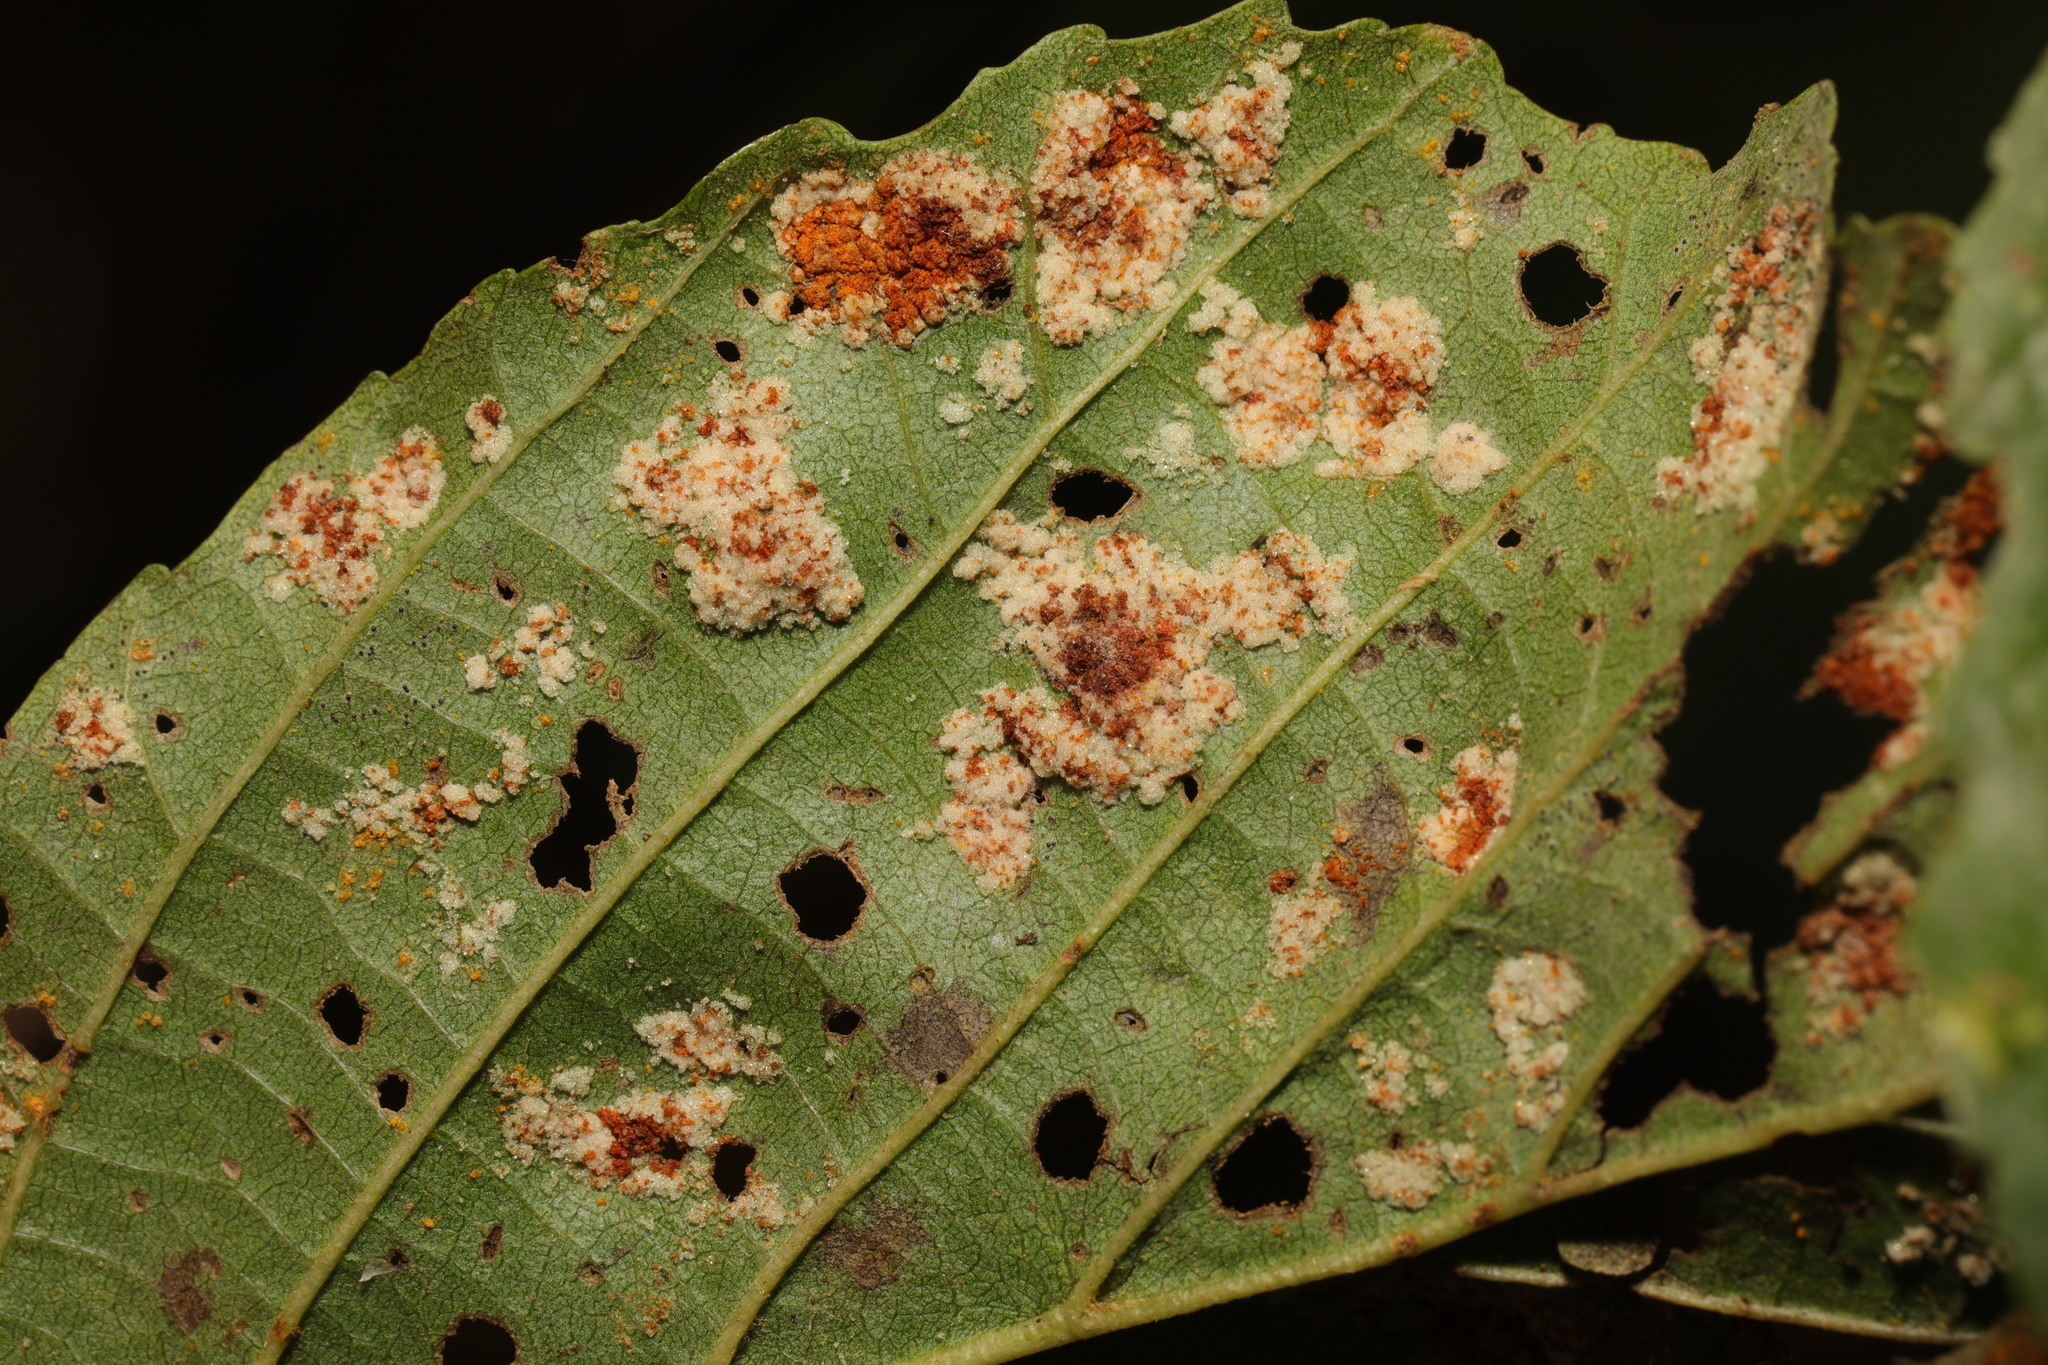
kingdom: Animalia
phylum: Arthropoda
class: Arachnida
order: Trombidiformes
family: Eriophyidae
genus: Acalitus
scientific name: Acalitus brevitarsus
